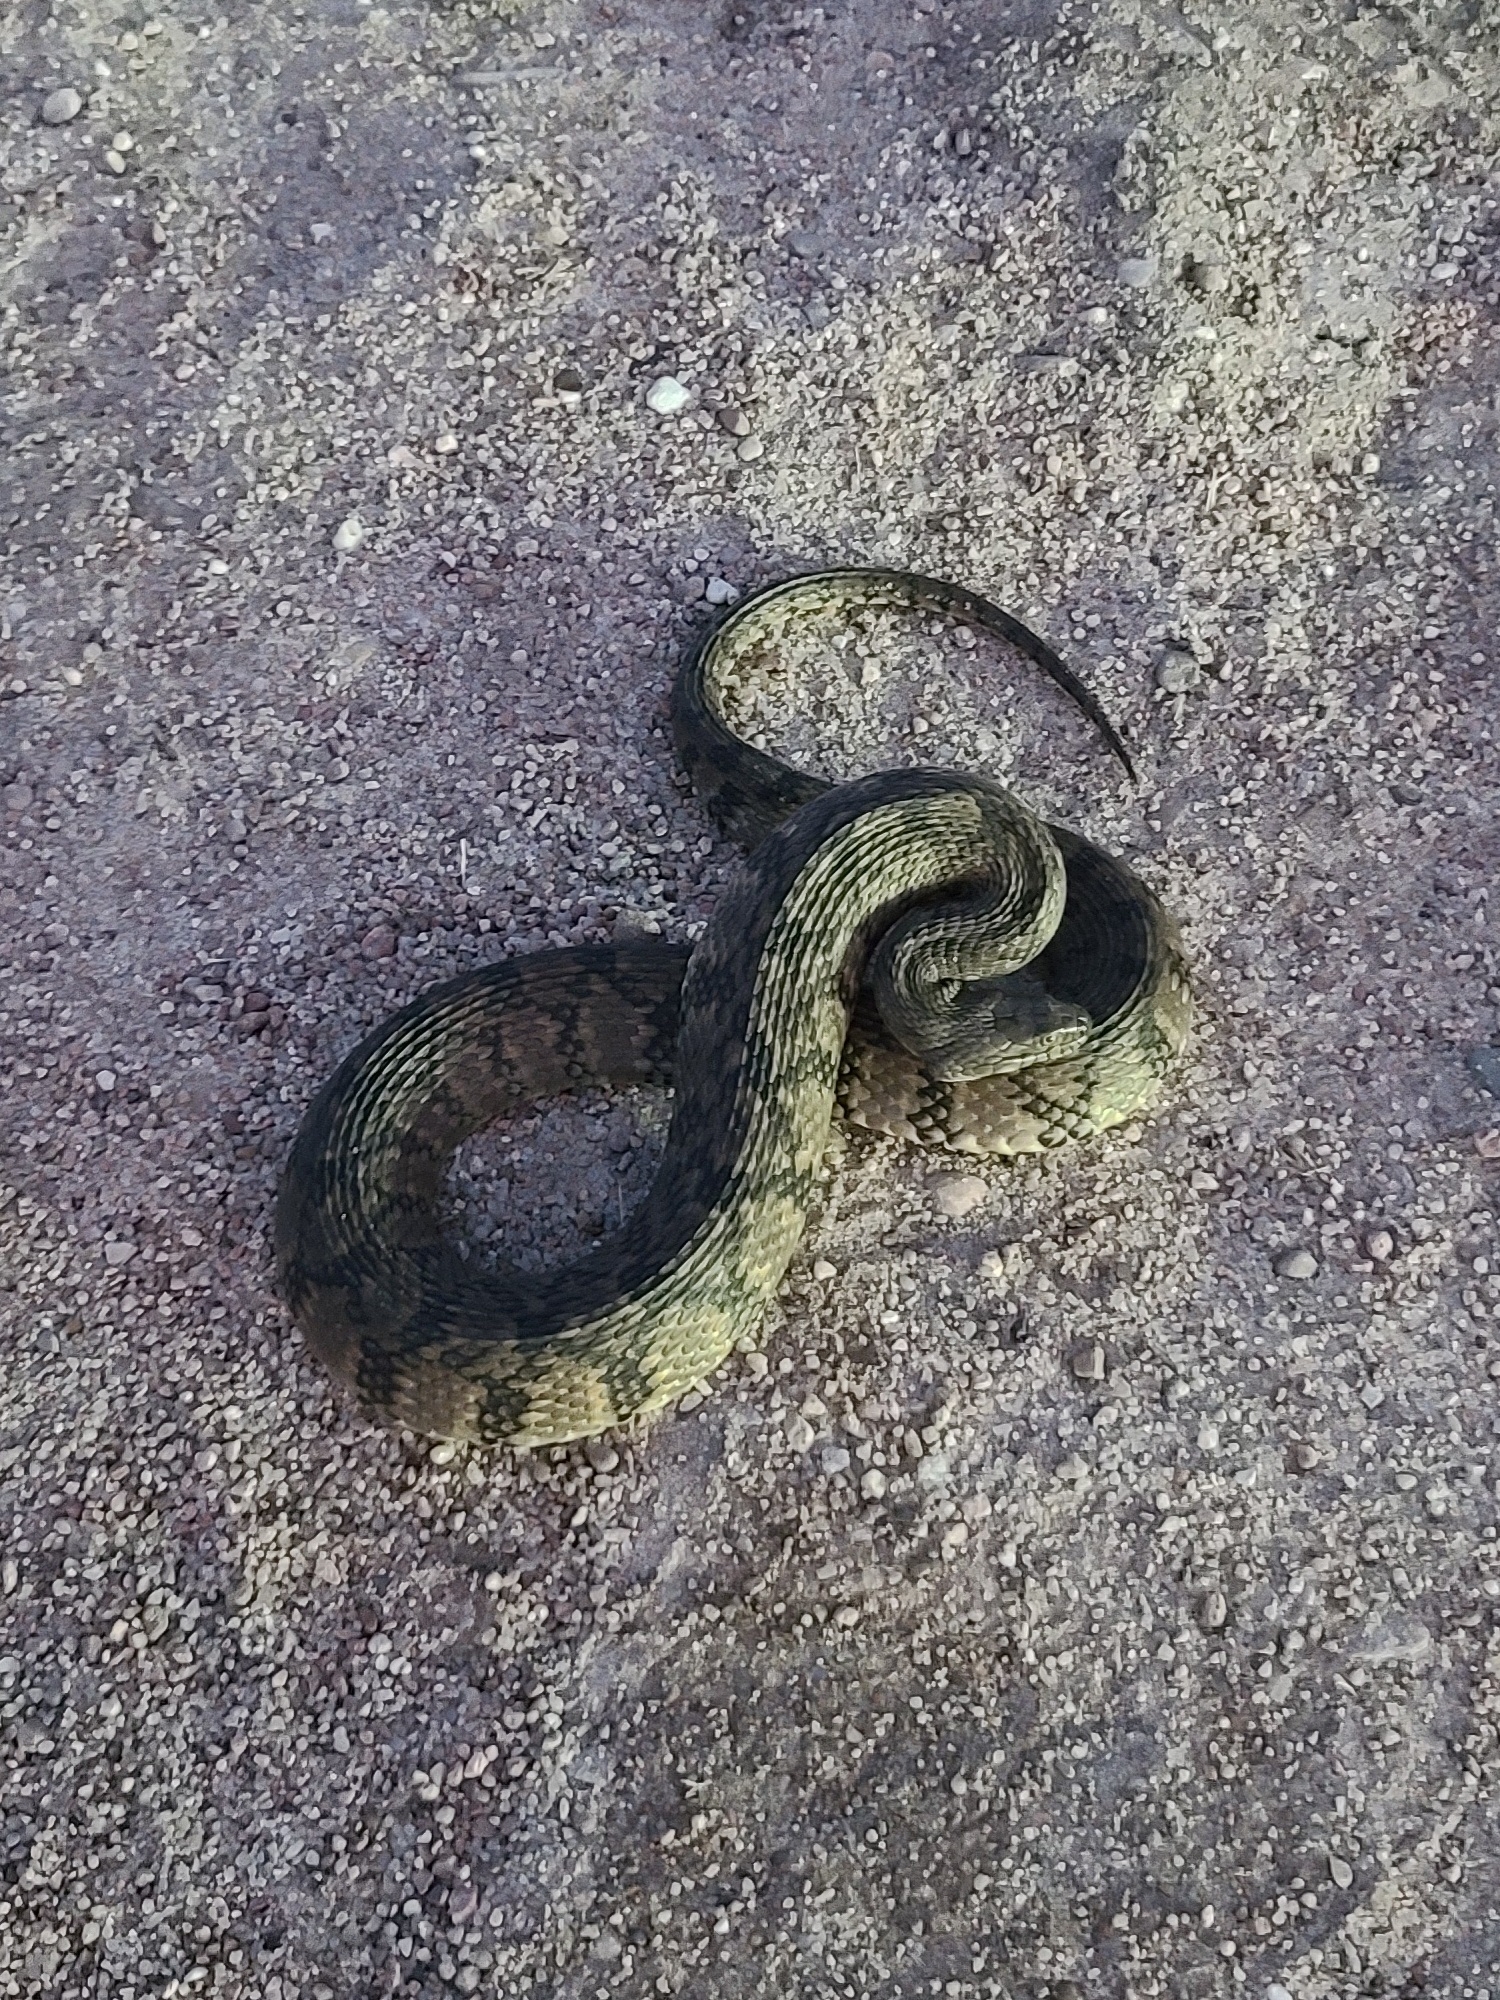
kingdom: Animalia
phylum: Chordata
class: Squamata
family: Colubridae
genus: Nerodia
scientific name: Nerodia rhombifer
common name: Diamondback water snake
